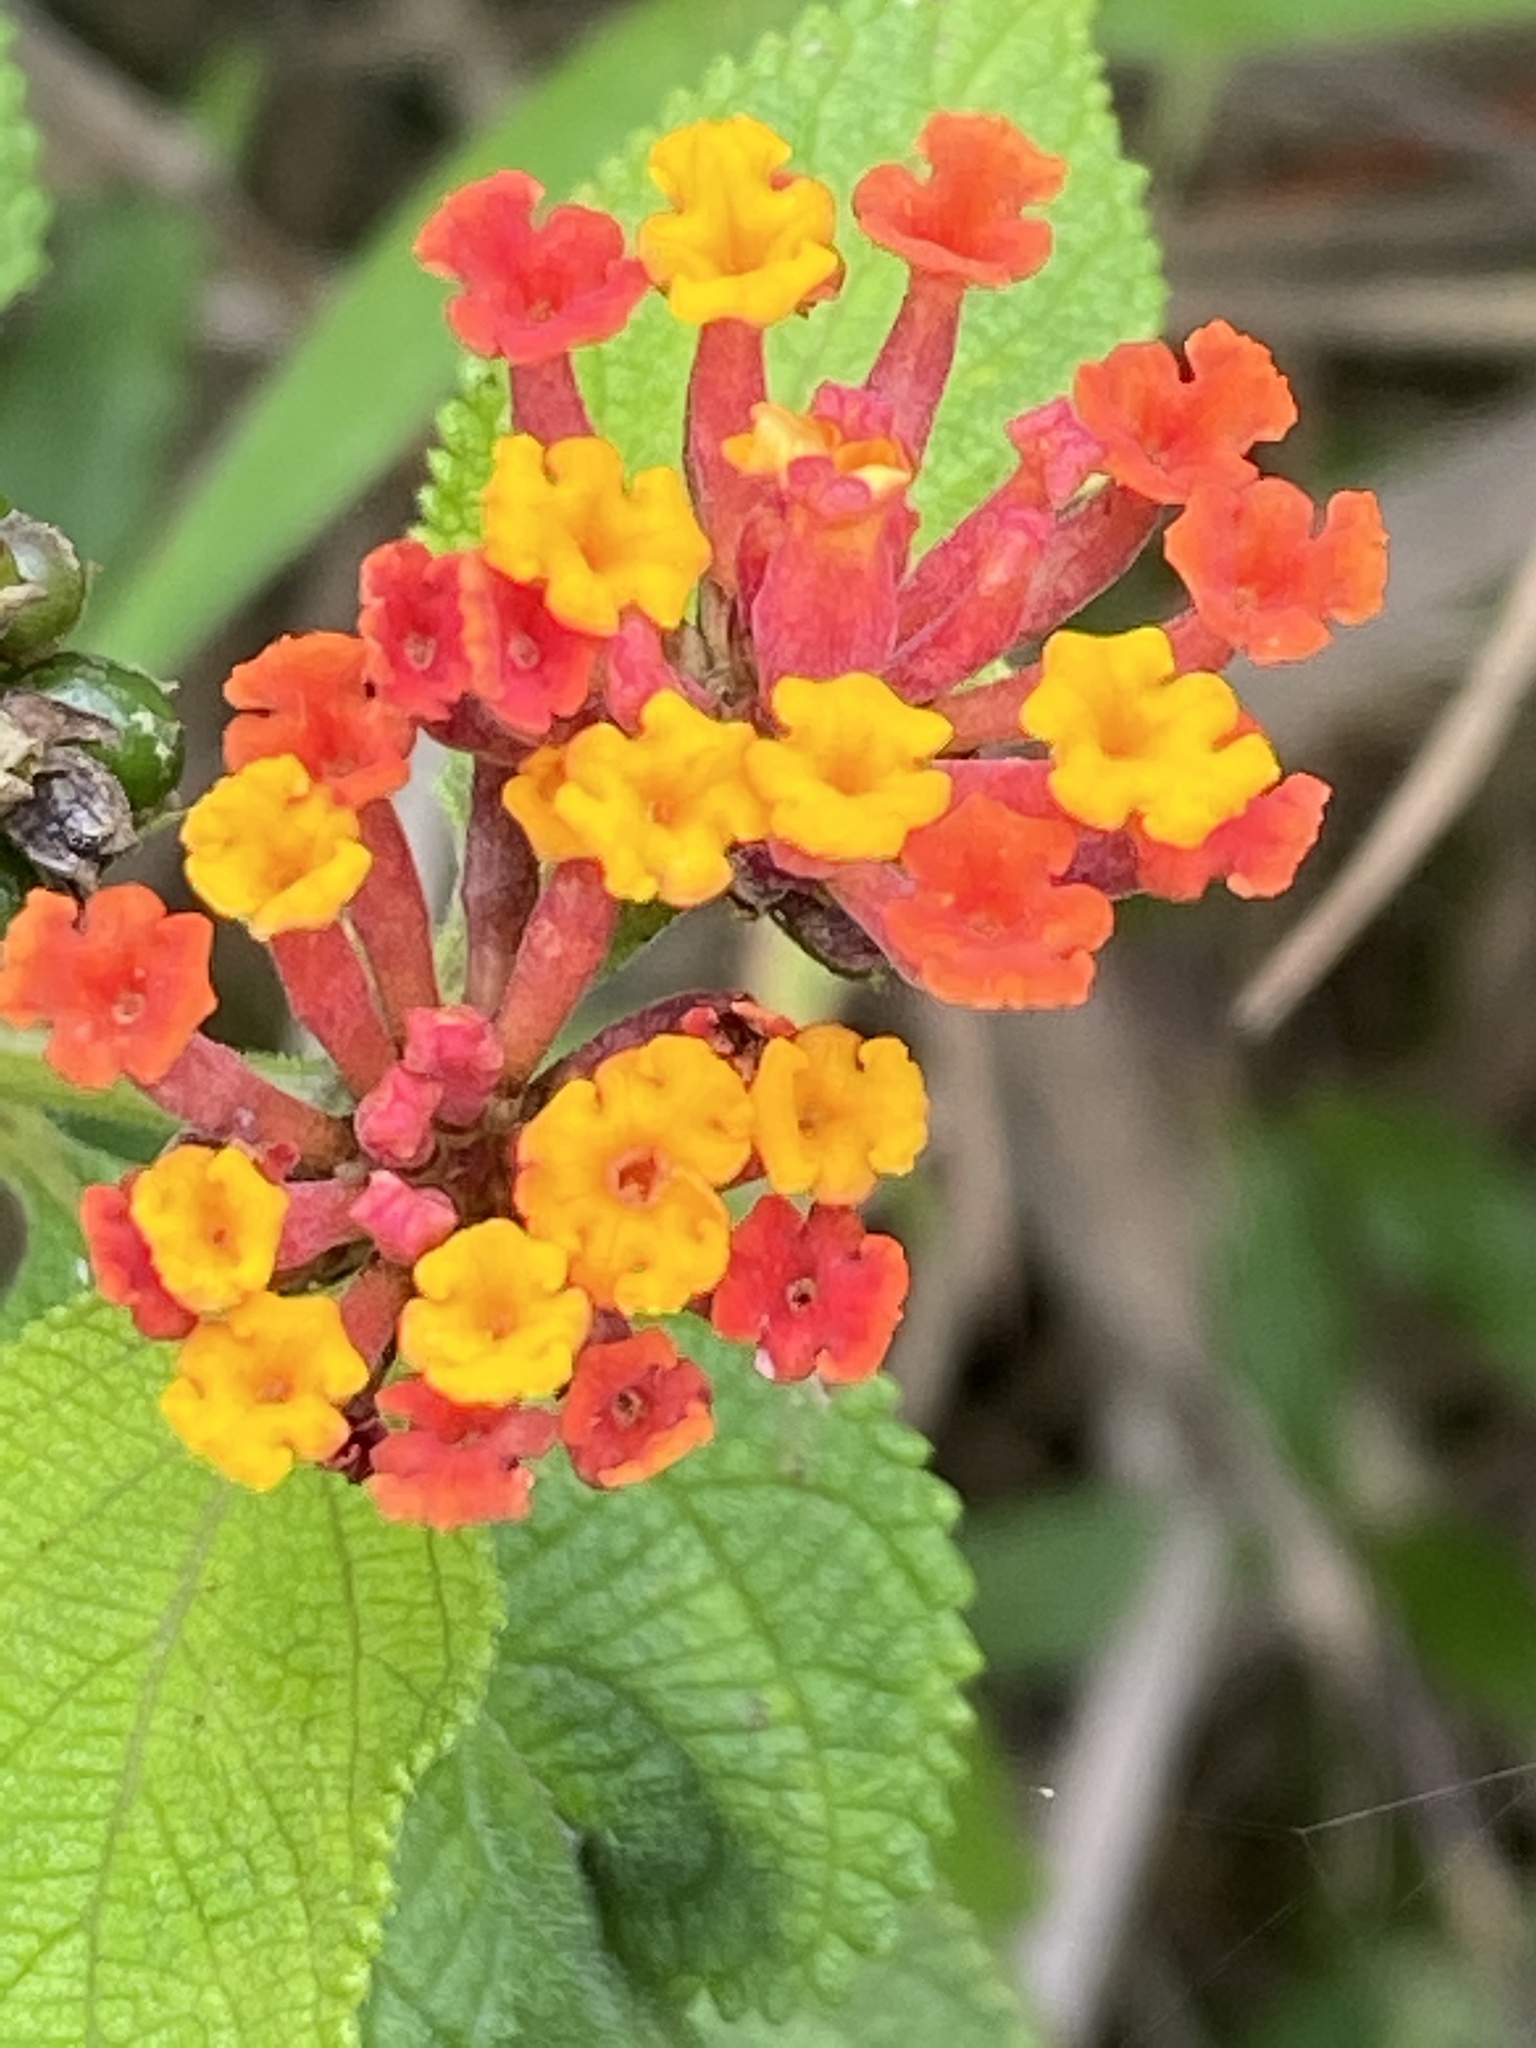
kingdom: Plantae
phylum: Tracheophyta
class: Magnoliopsida
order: Lamiales
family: Verbenaceae
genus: Lantana
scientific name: Lantana camara
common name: Lantana
